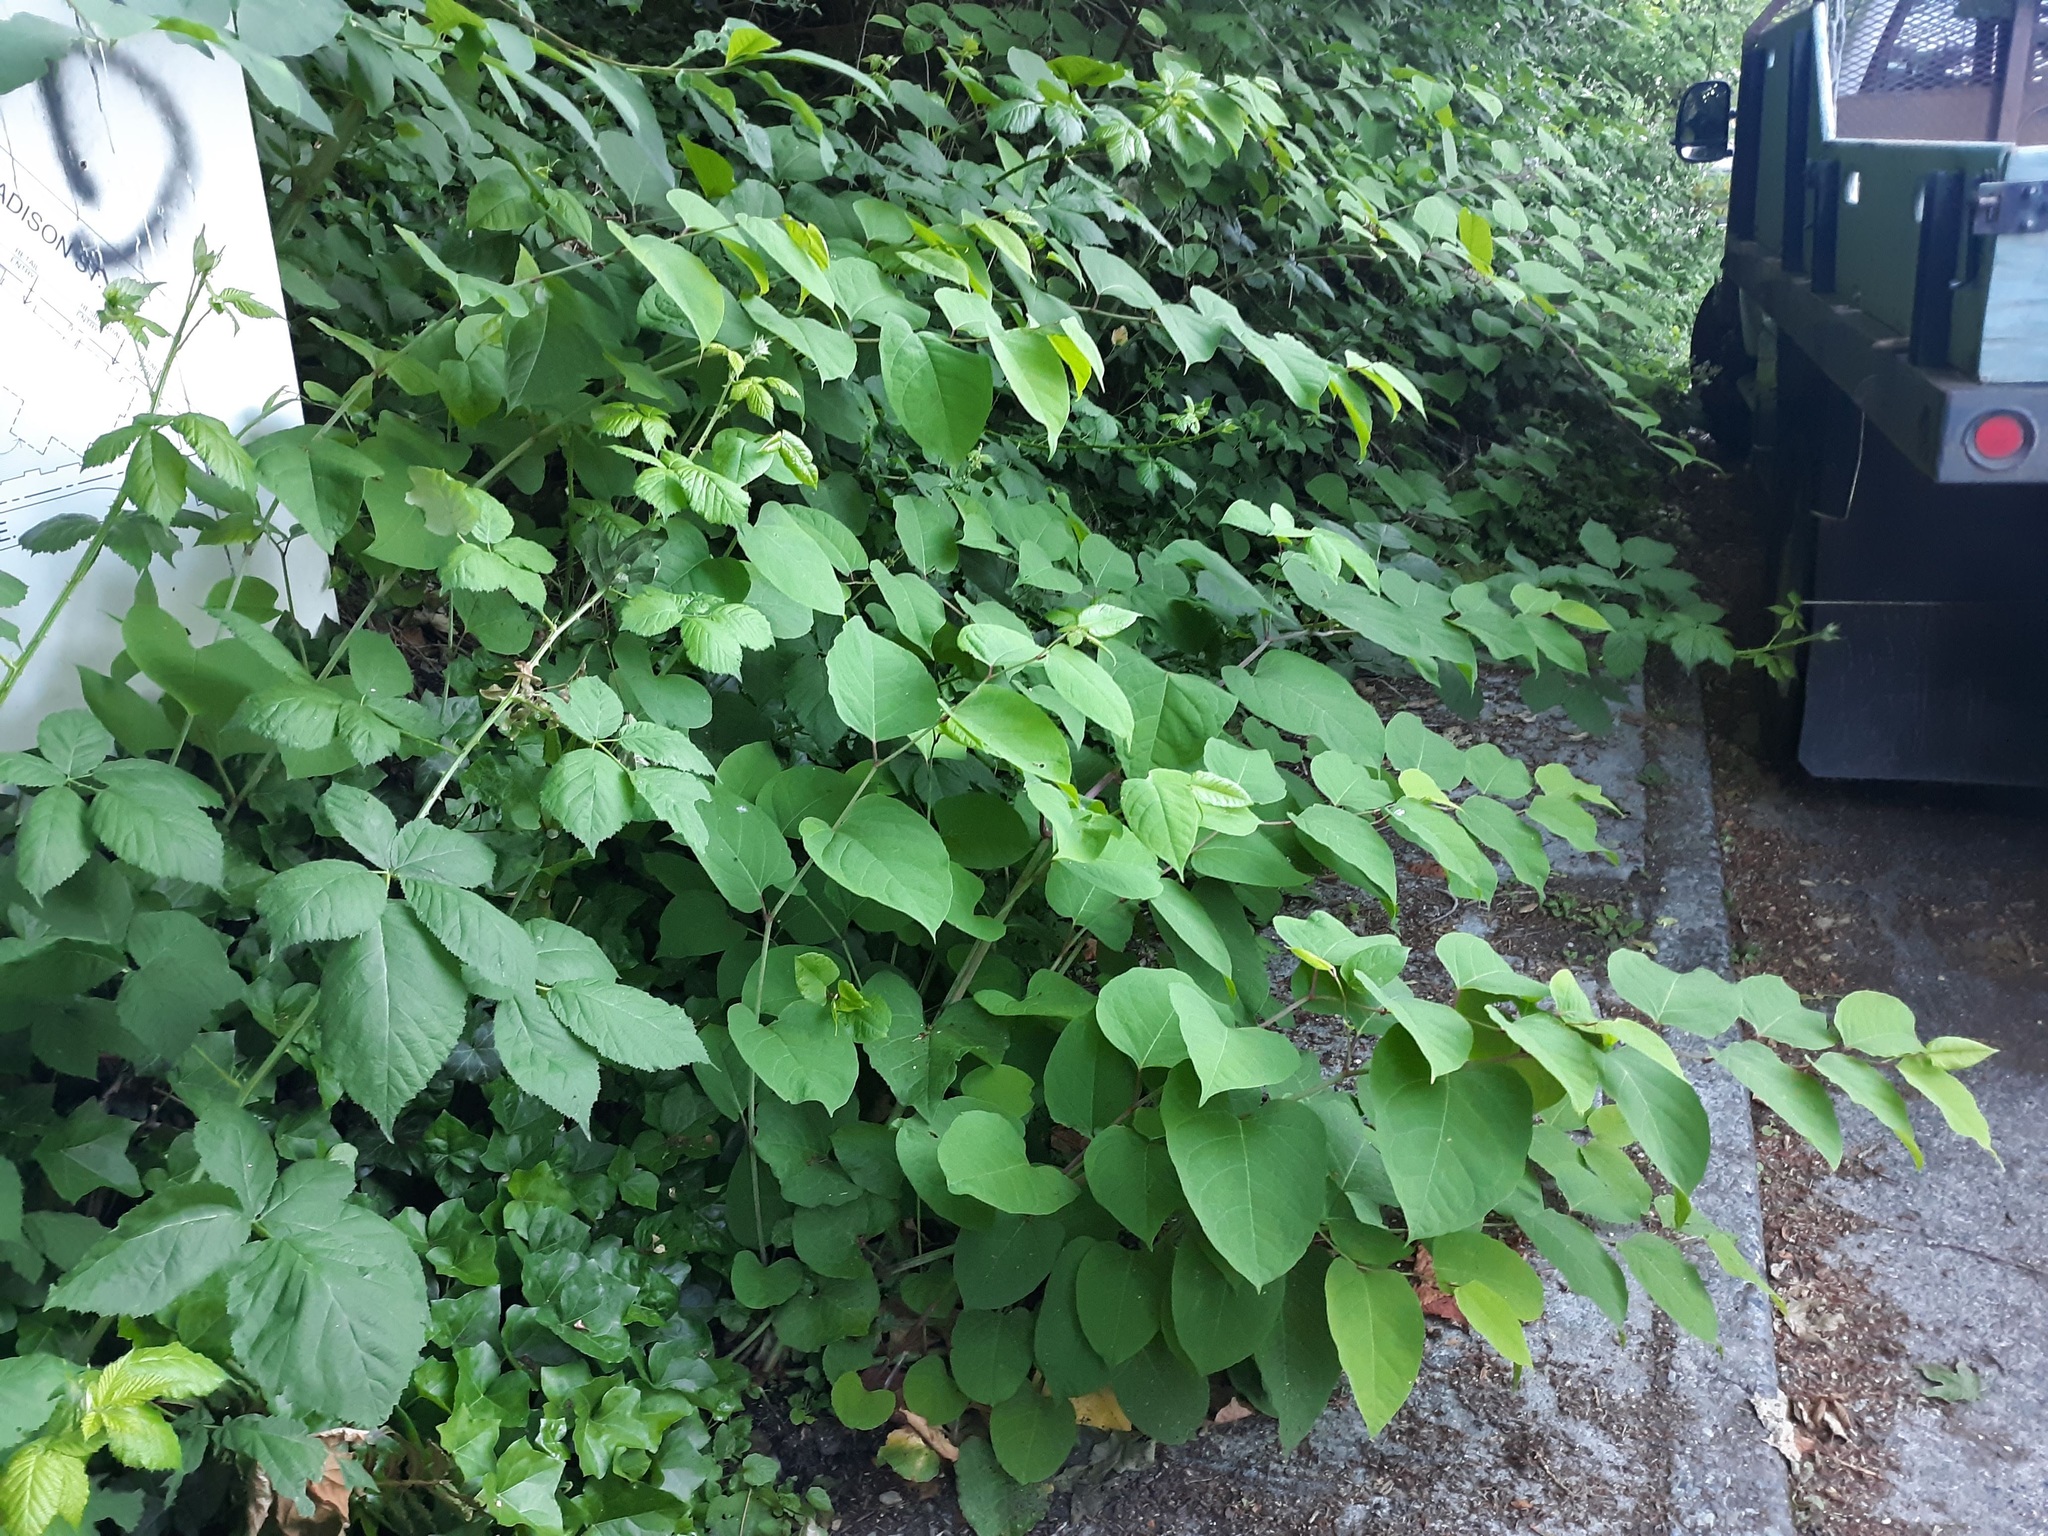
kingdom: Plantae
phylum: Tracheophyta
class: Magnoliopsida
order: Caryophyllales
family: Polygonaceae
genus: Reynoutria
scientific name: Reynoutria japonica
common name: Japanese knotweed
